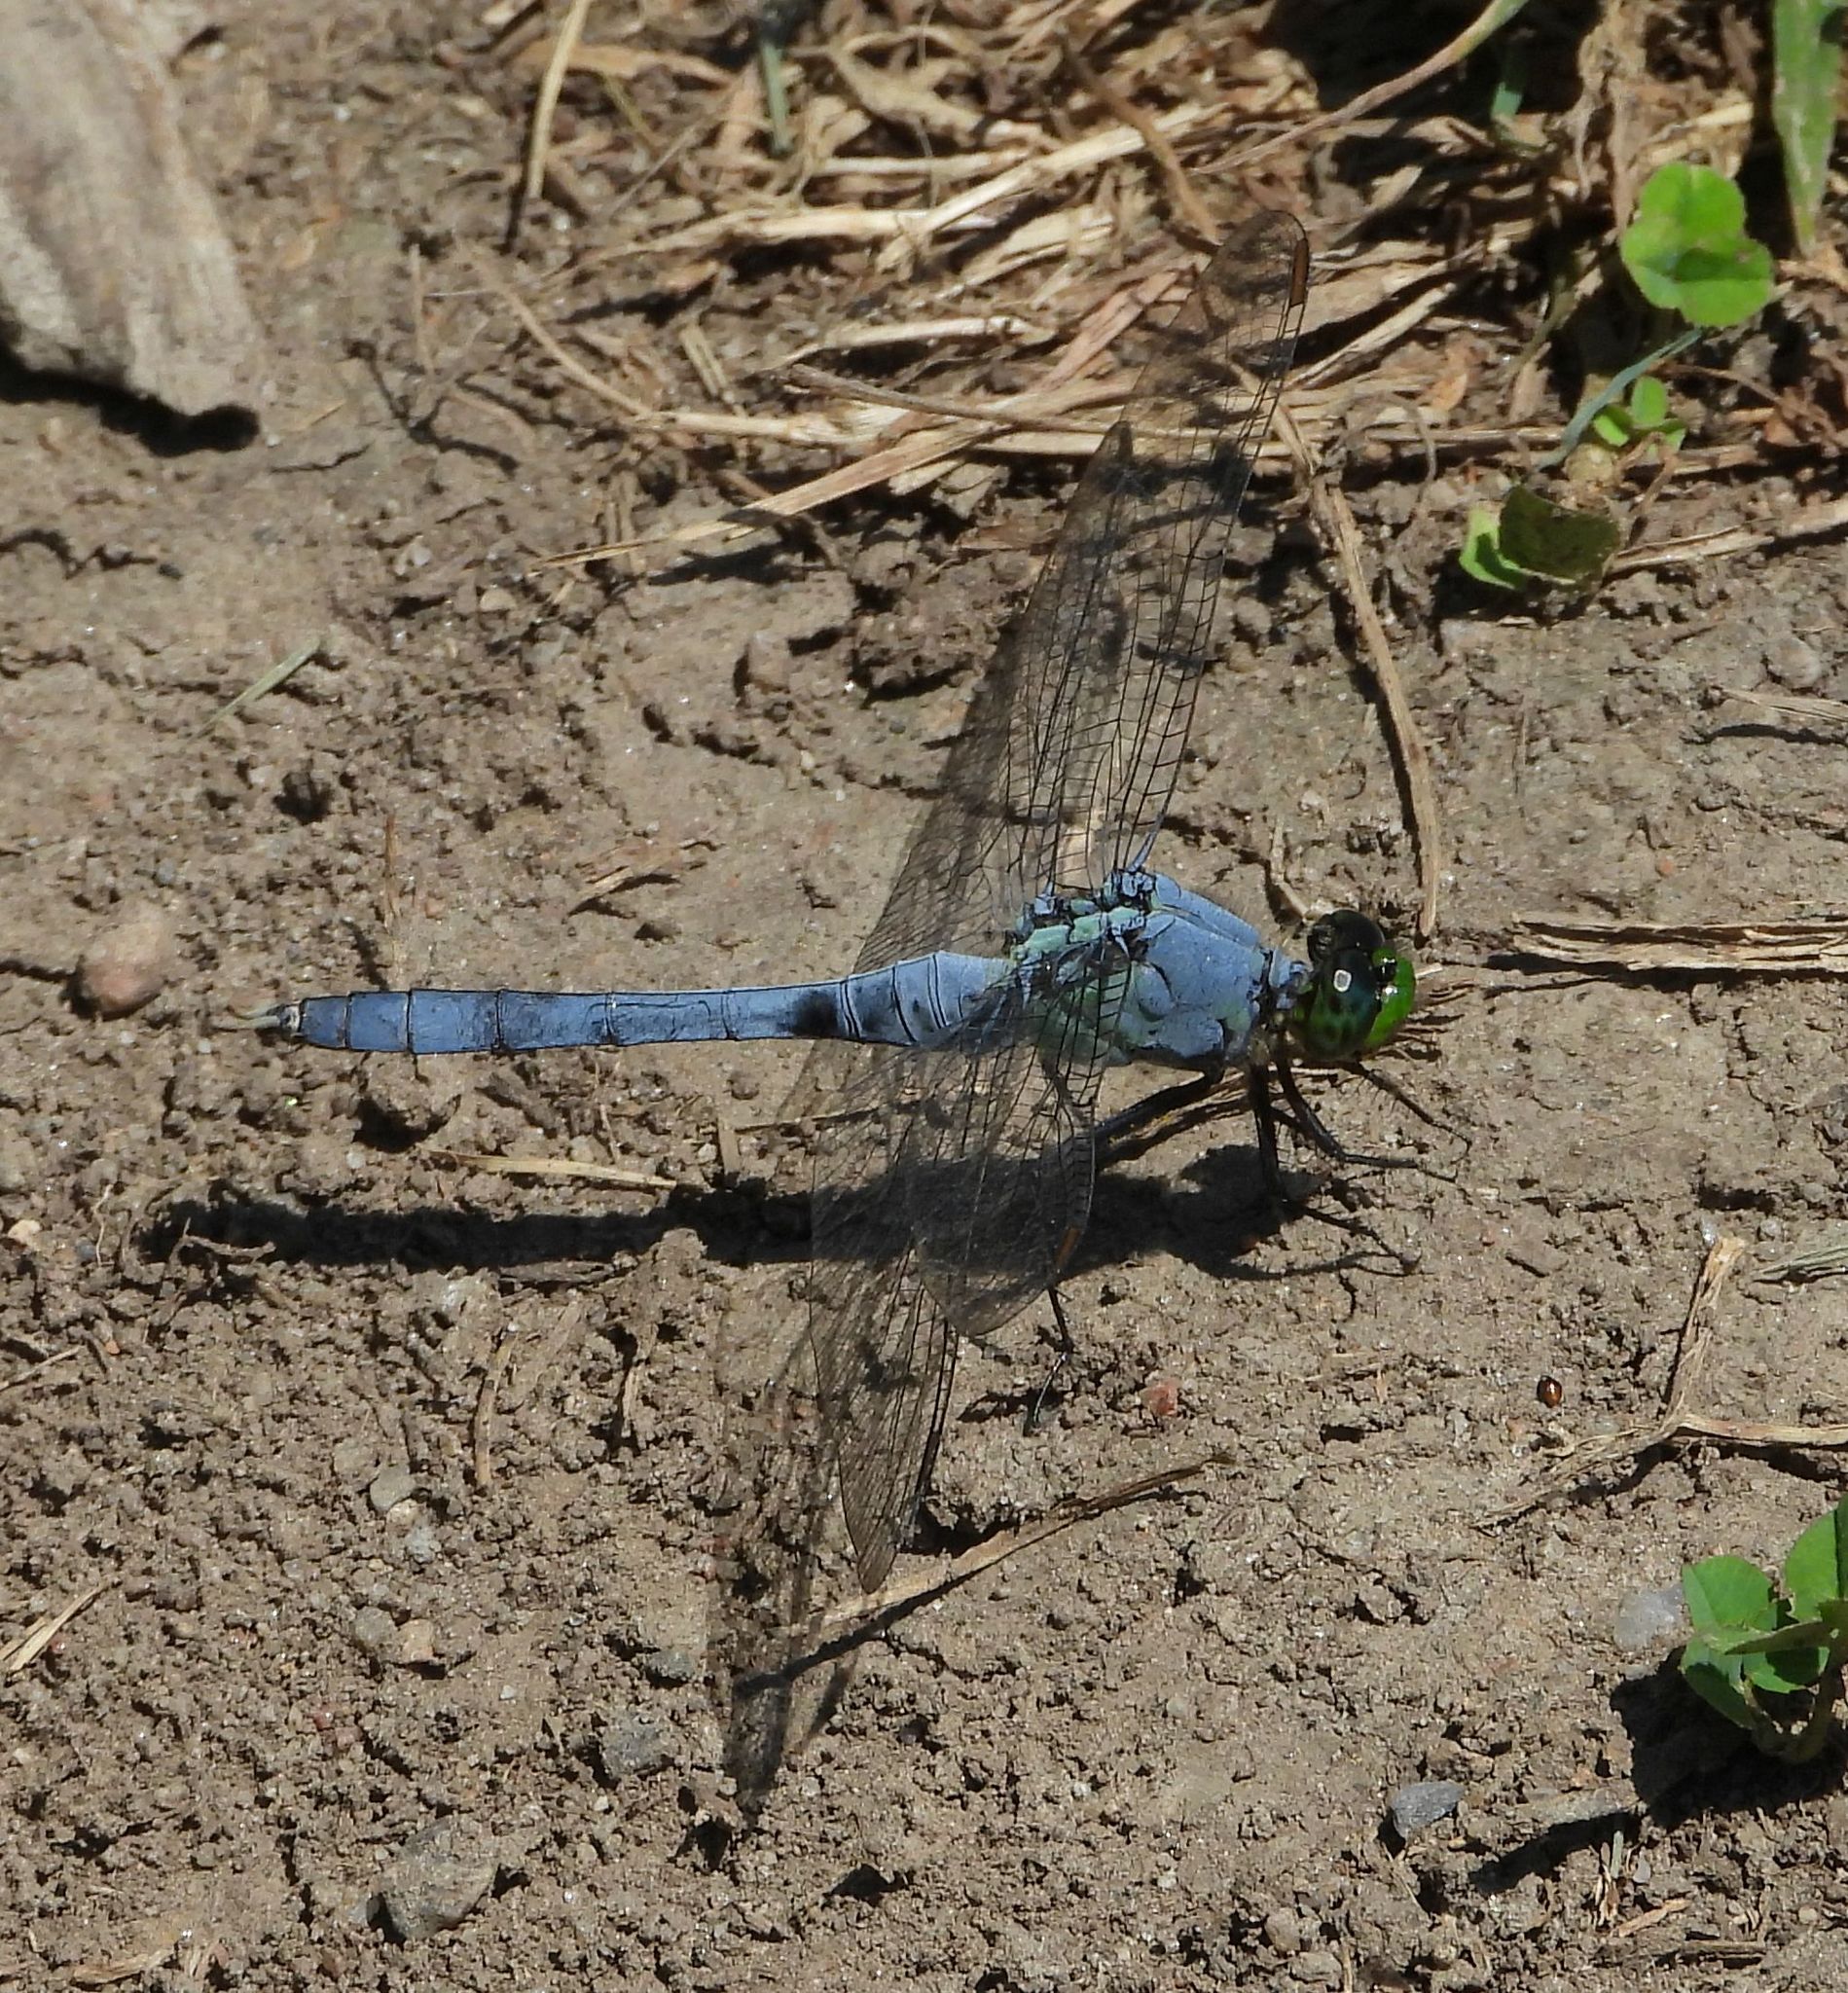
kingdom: Animalia
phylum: Arthropoda
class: Insecta
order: Odonata
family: Libellulidae
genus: Erythemis
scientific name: Erythemis simplicicollis
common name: Eastern pondhawk
